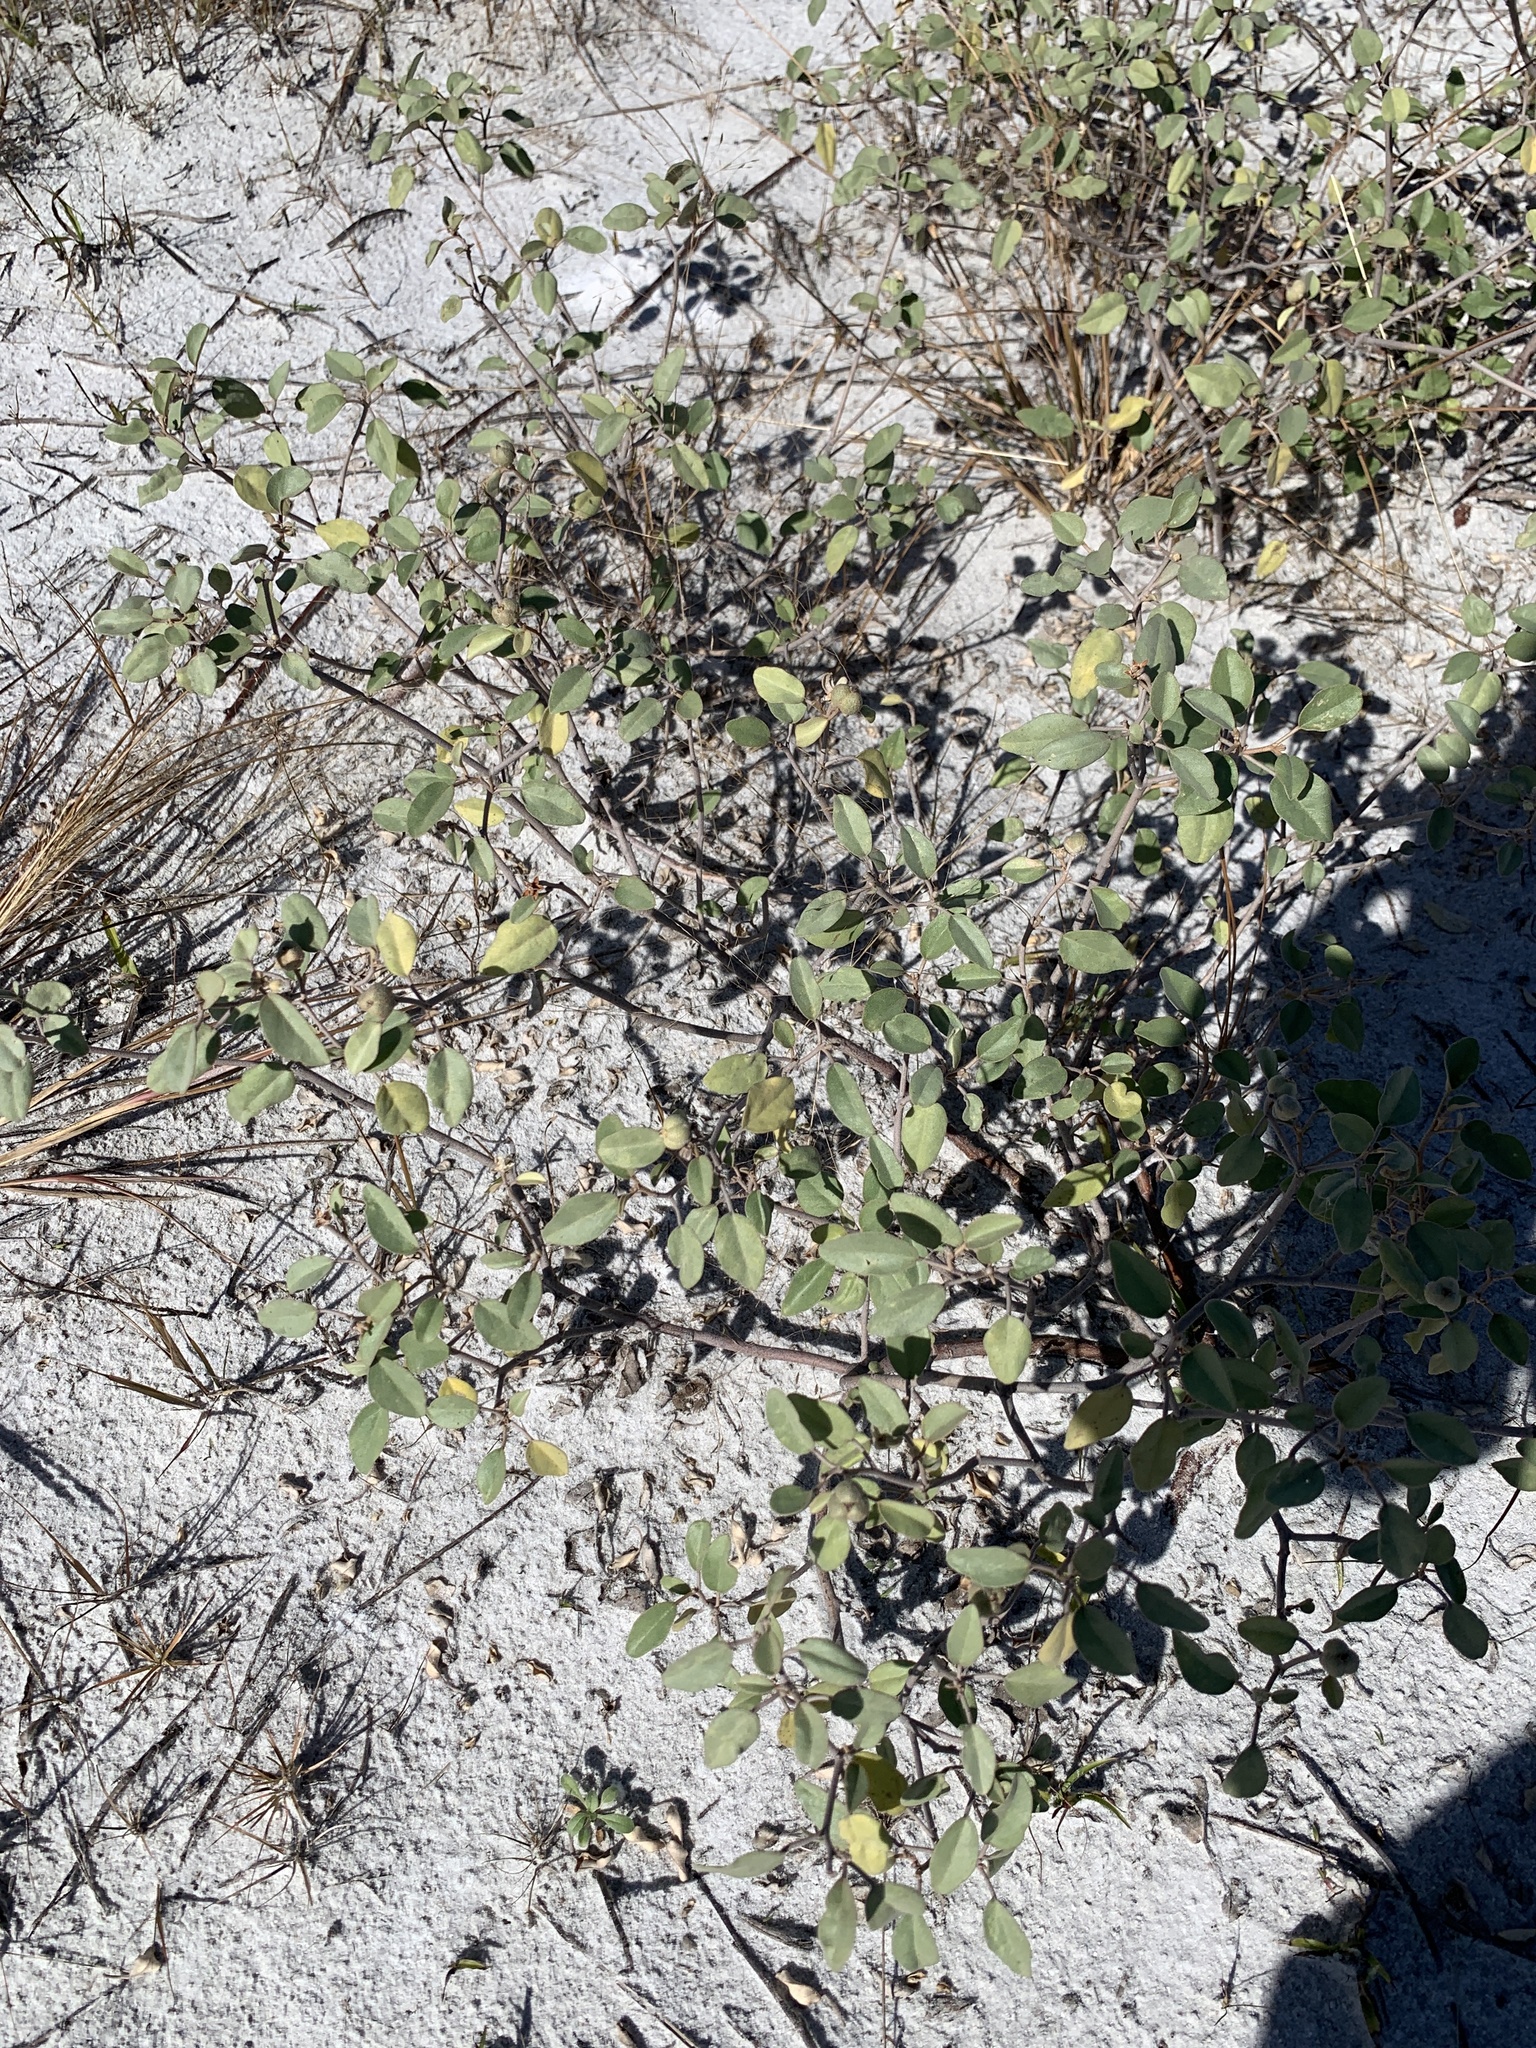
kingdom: Plantae
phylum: Tracheophyta
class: Magnoliopsida
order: Malpighiales
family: Euphorbiaceae
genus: Croton
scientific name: Croton punctatus
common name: Beach-tea
